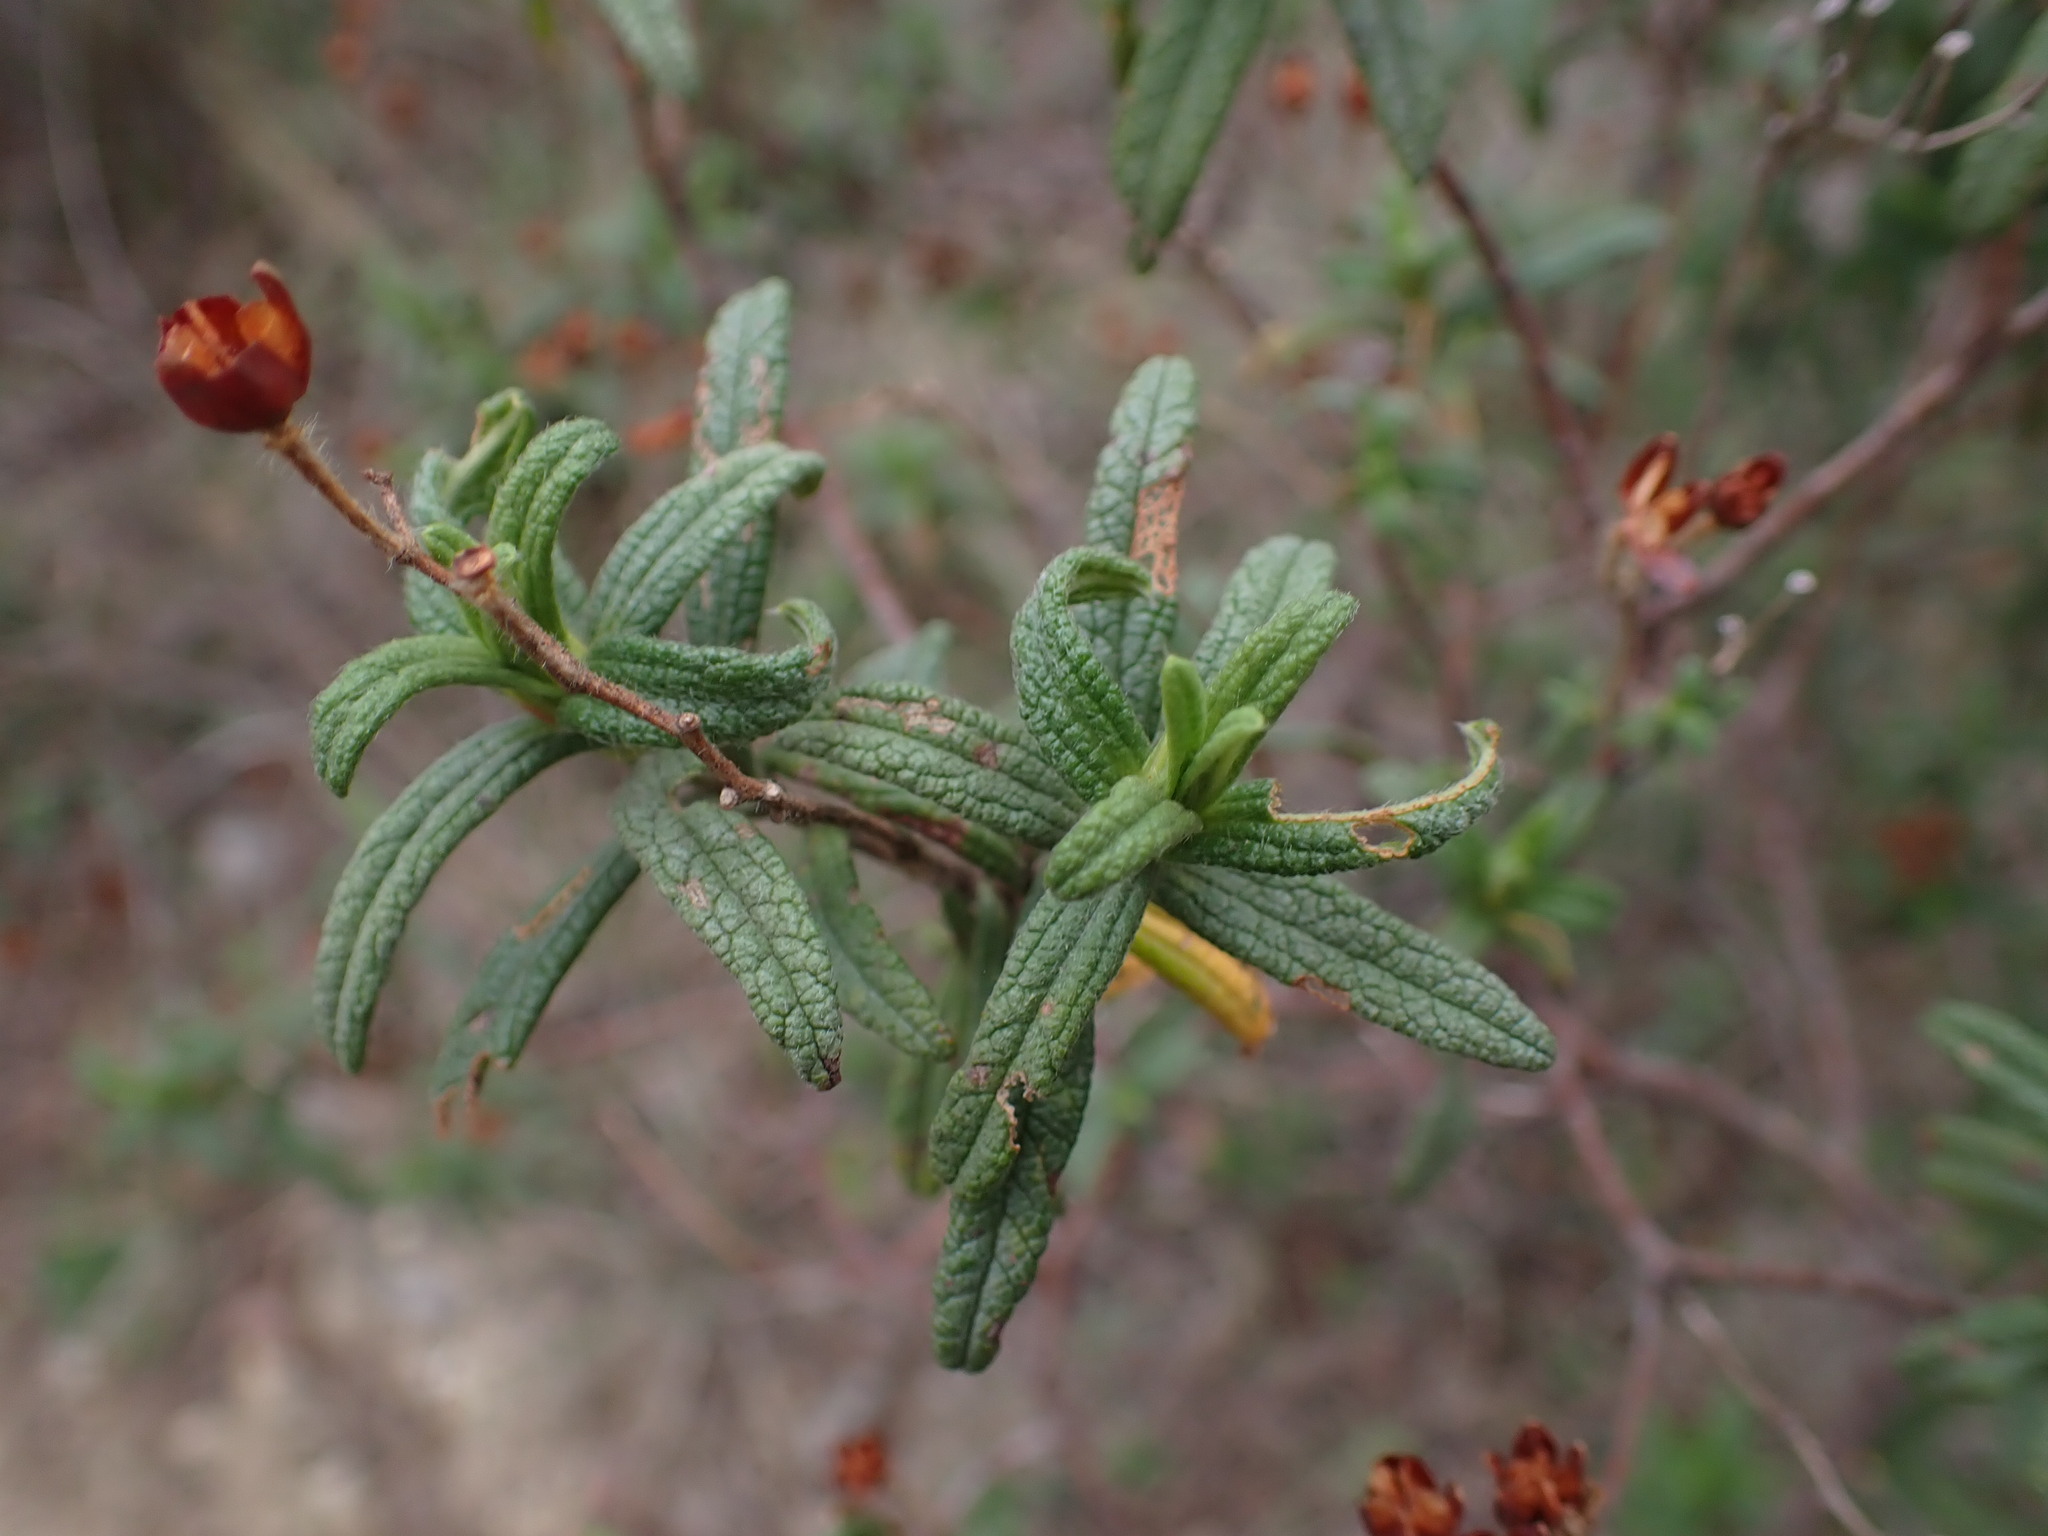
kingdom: Plantae
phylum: Tracheophyta
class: Magnoliopsida
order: Malvales
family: Cistaceae
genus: Cistus
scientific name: Cistus monspeliensis
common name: Montpelier cistus
